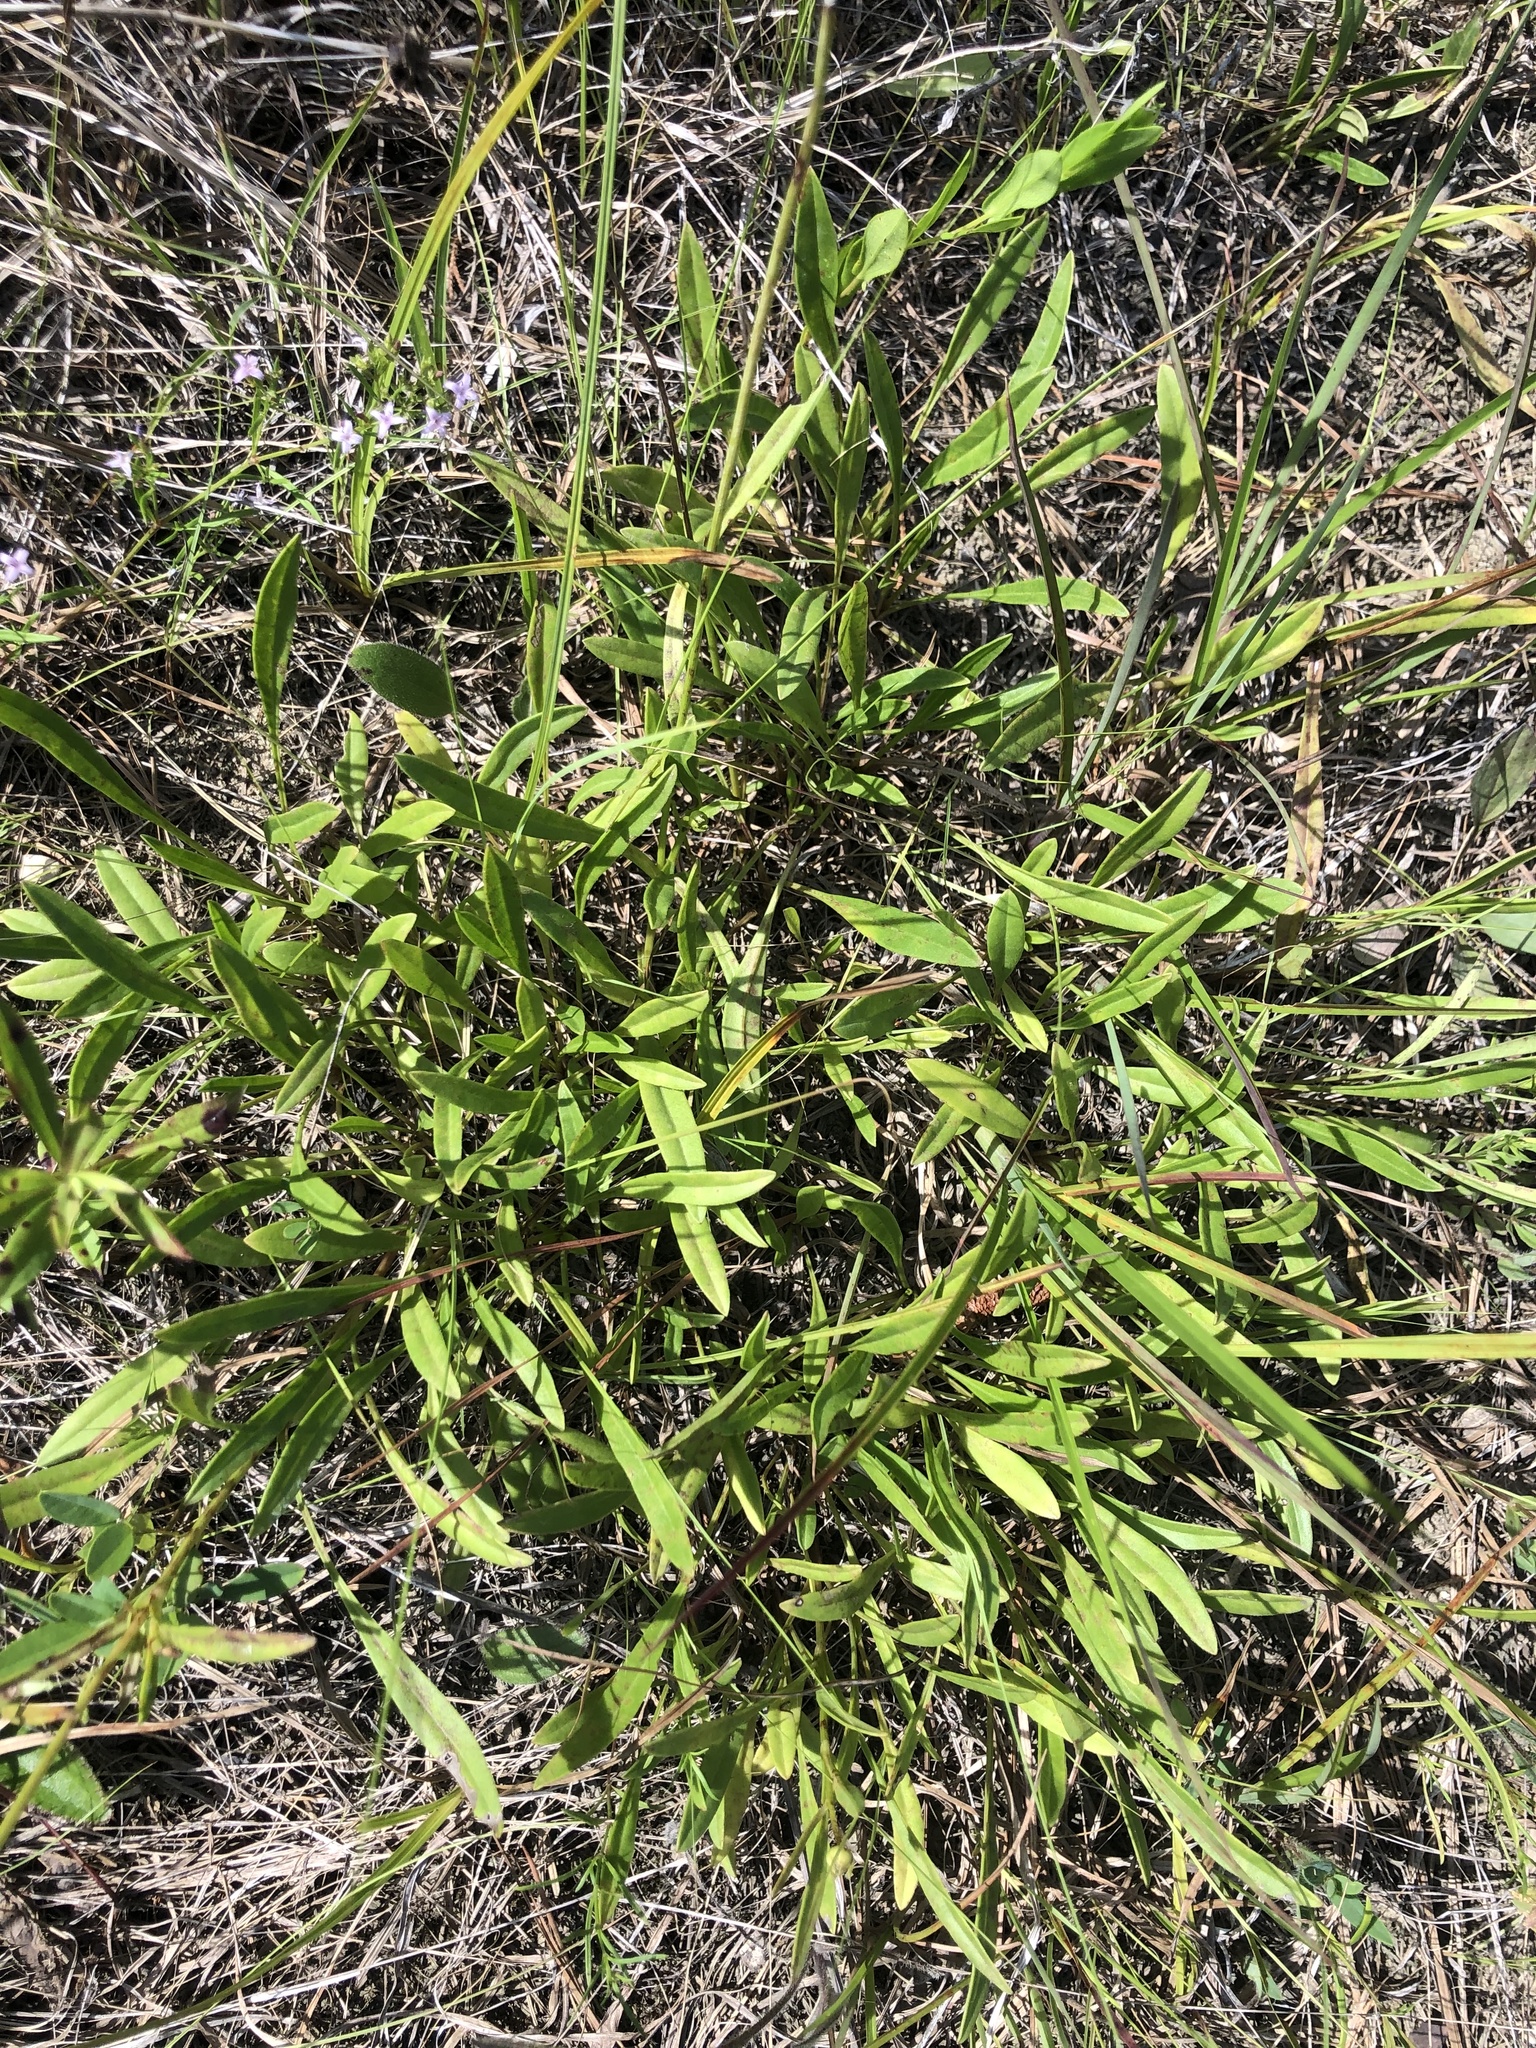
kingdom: Plantae
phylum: Tracheophyta
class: Magnoliopsida
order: Asterales
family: Asteraceae
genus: Coreopsis
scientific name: Coreopsis lanceolata
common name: Garden coreopsis
